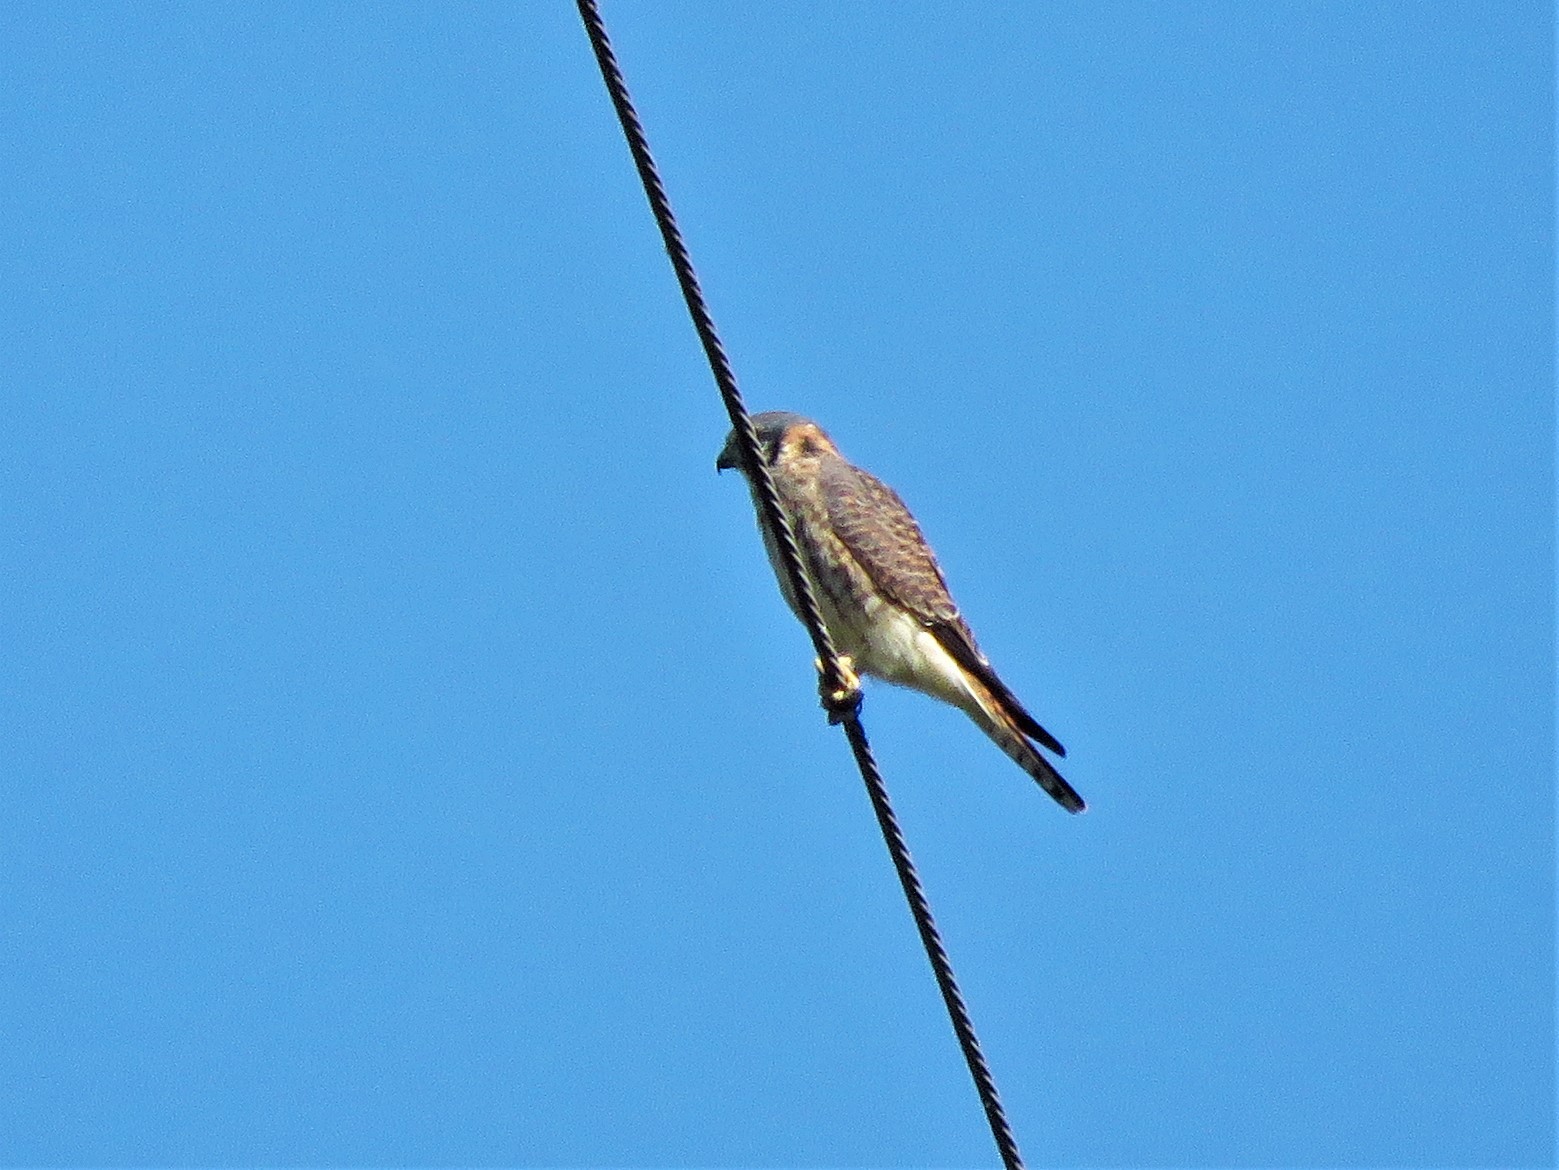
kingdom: Animalia
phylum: Chordata
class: Aves
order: Falconiformes
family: Falconidae
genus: Falco
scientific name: Falco sparverius
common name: American kestrel
